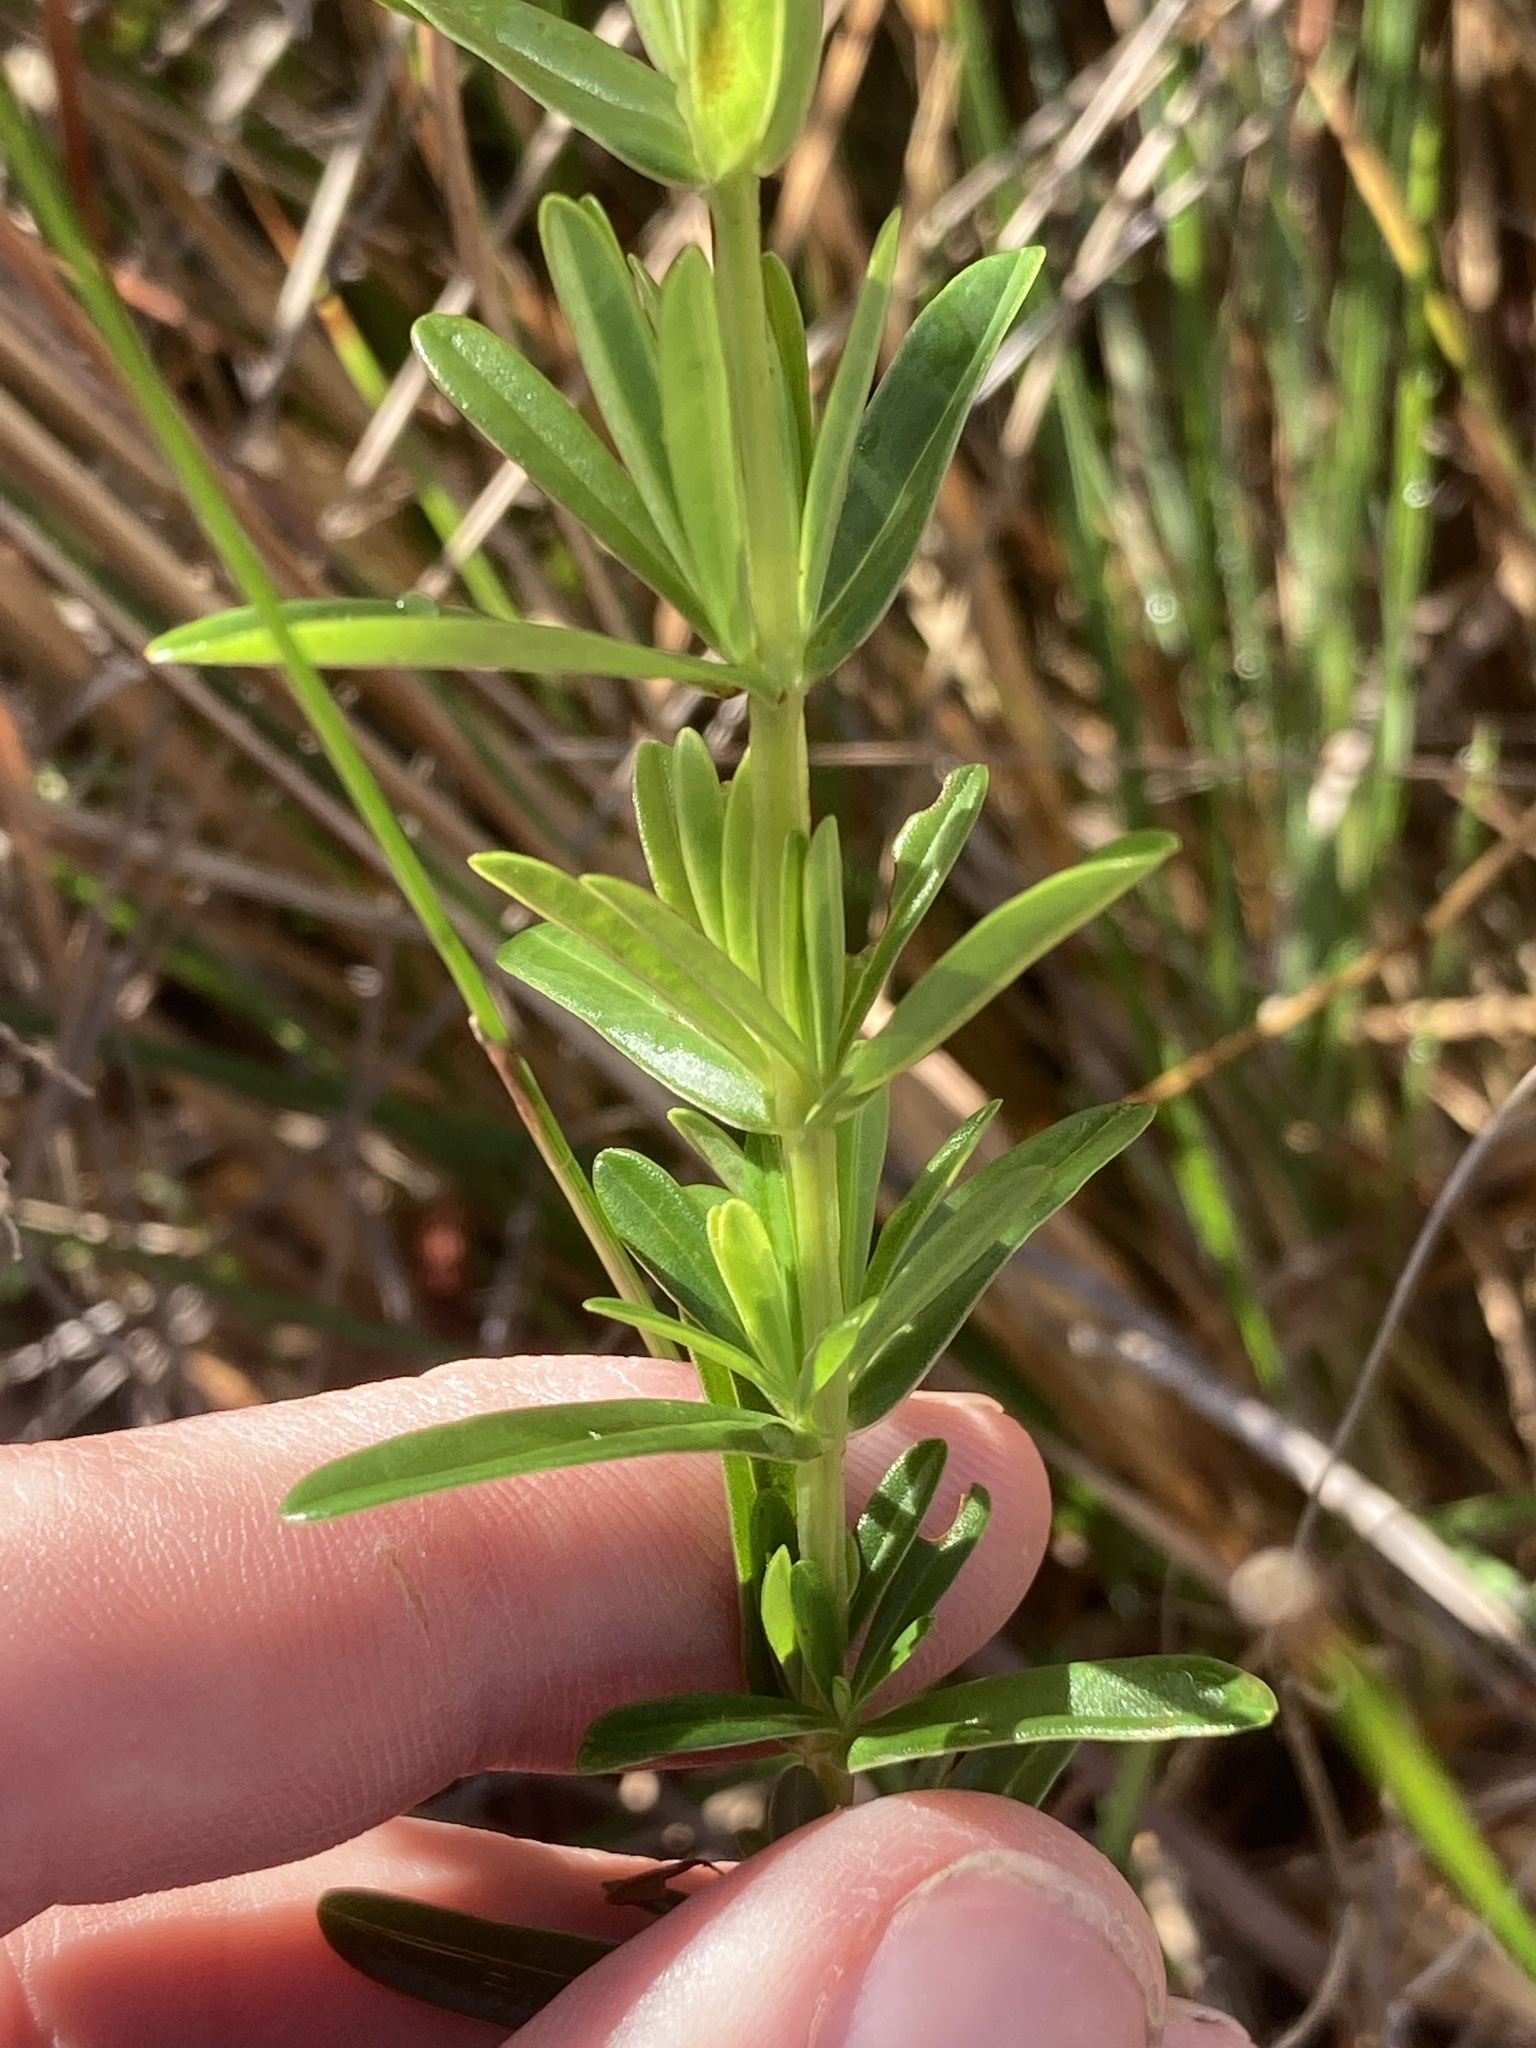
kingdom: Plantae
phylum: Tracheophyta
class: Magnoliopsida
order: Malpighiales
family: Hypericaceae
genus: Hypericum
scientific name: Hypericum cistifolium
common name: Round-pod st. john's-wort
